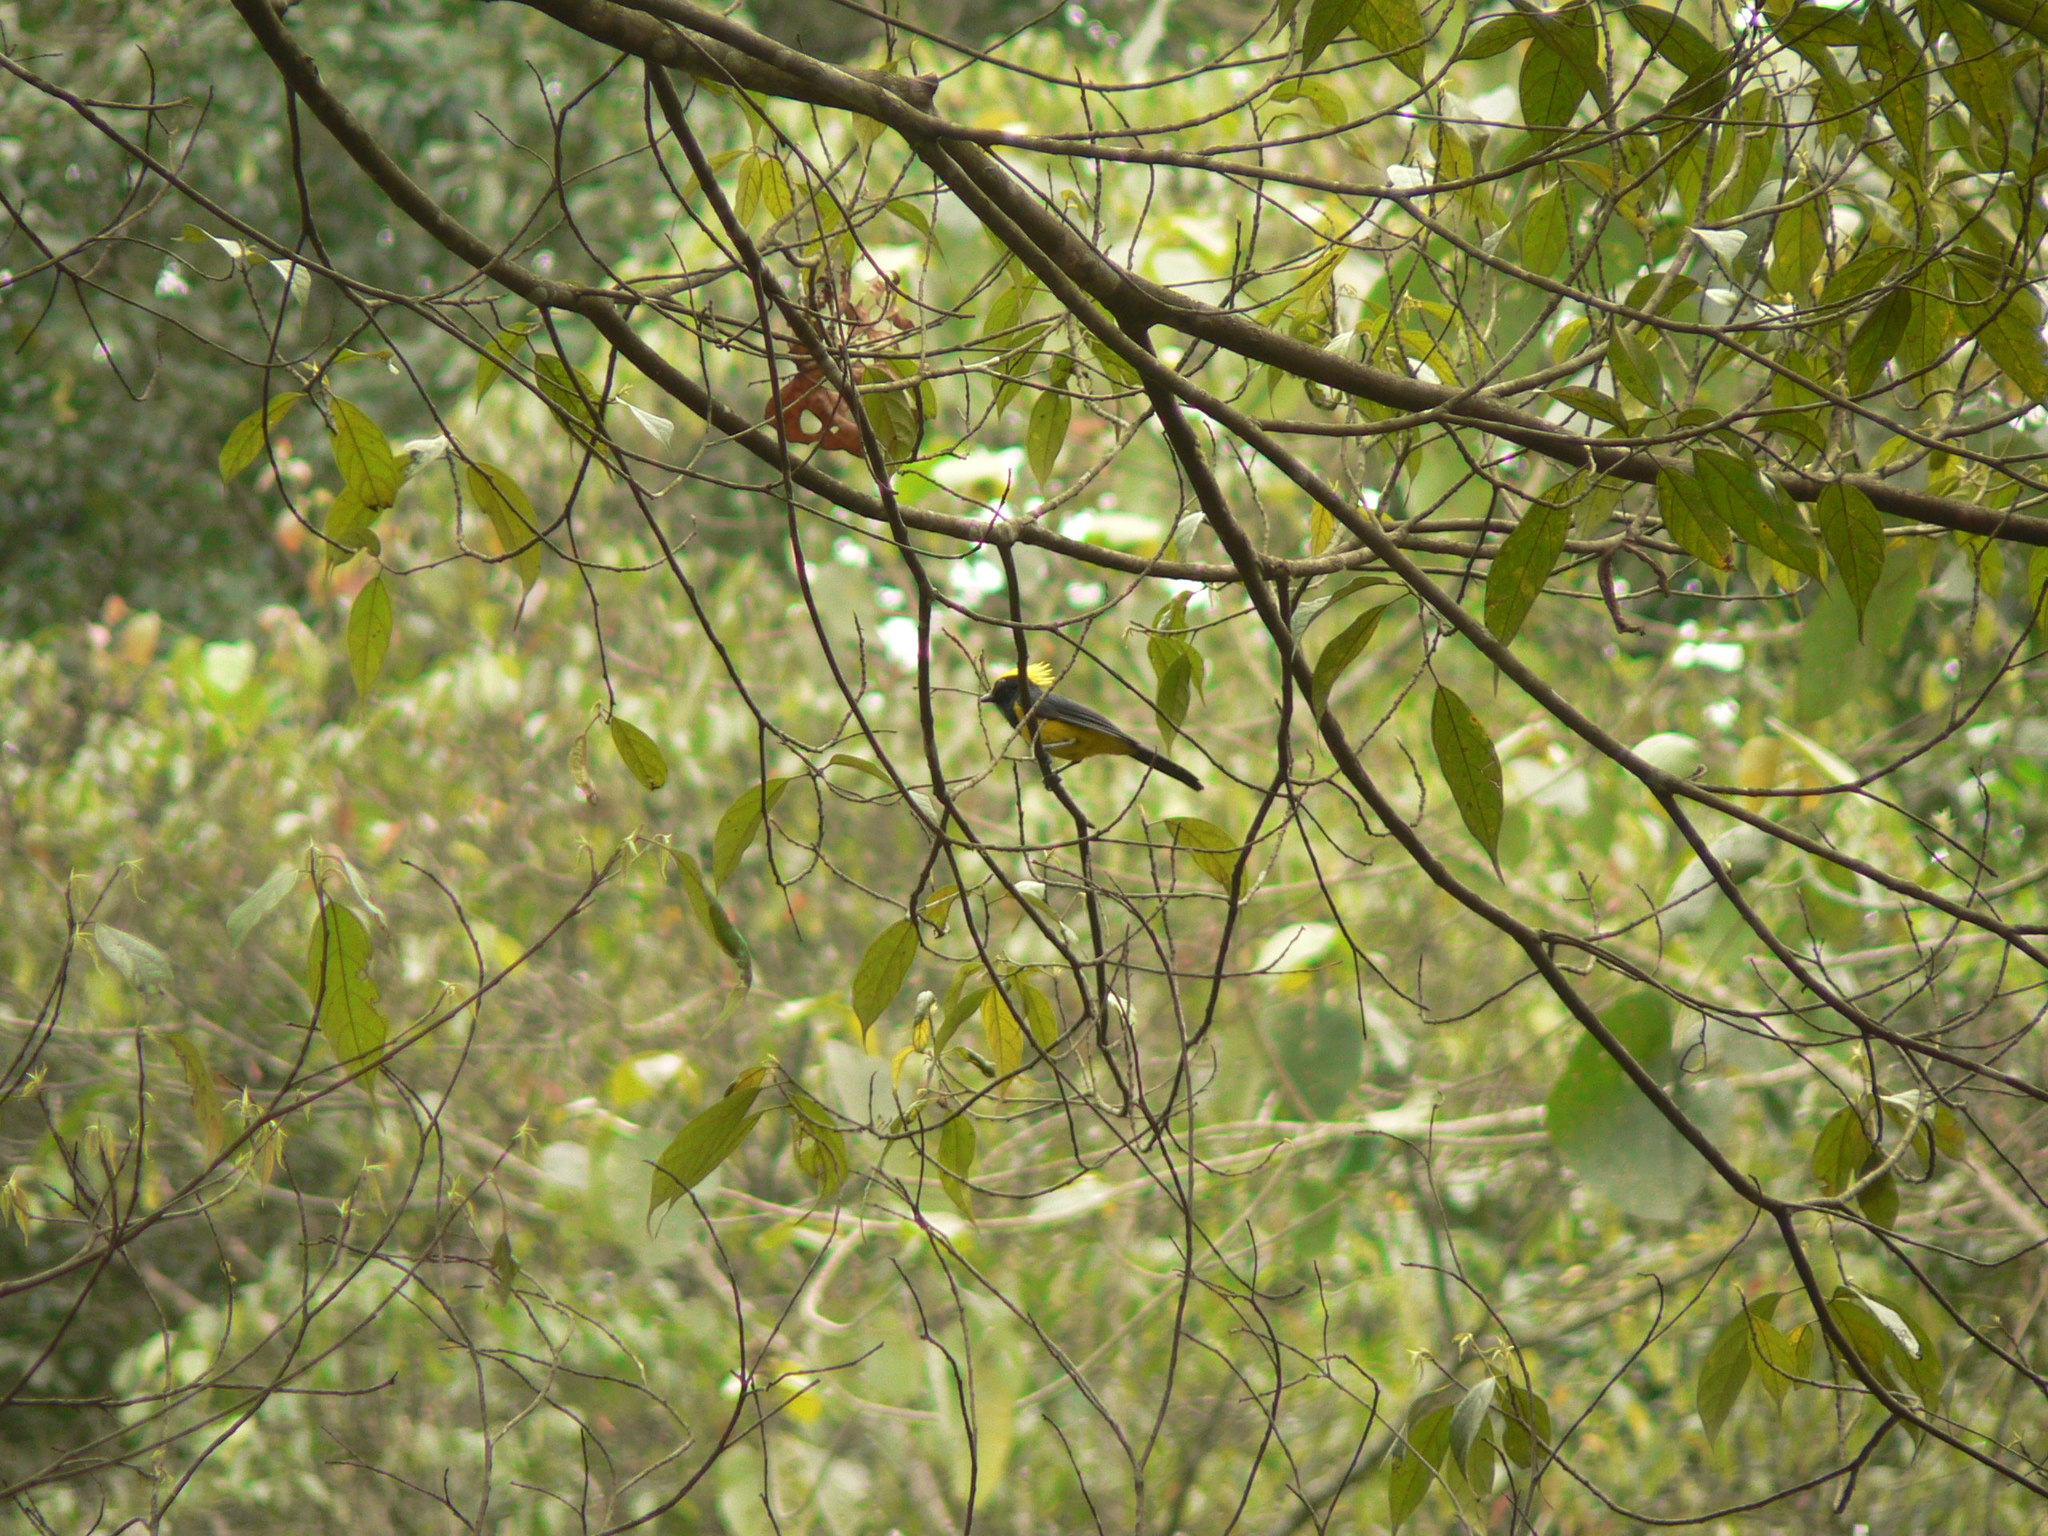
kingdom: Animalia
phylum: Chordata
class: Aves
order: Passeriformes
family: Paridae
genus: Melanochlora
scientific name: Melanochlora sultanea
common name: Sultan tit
